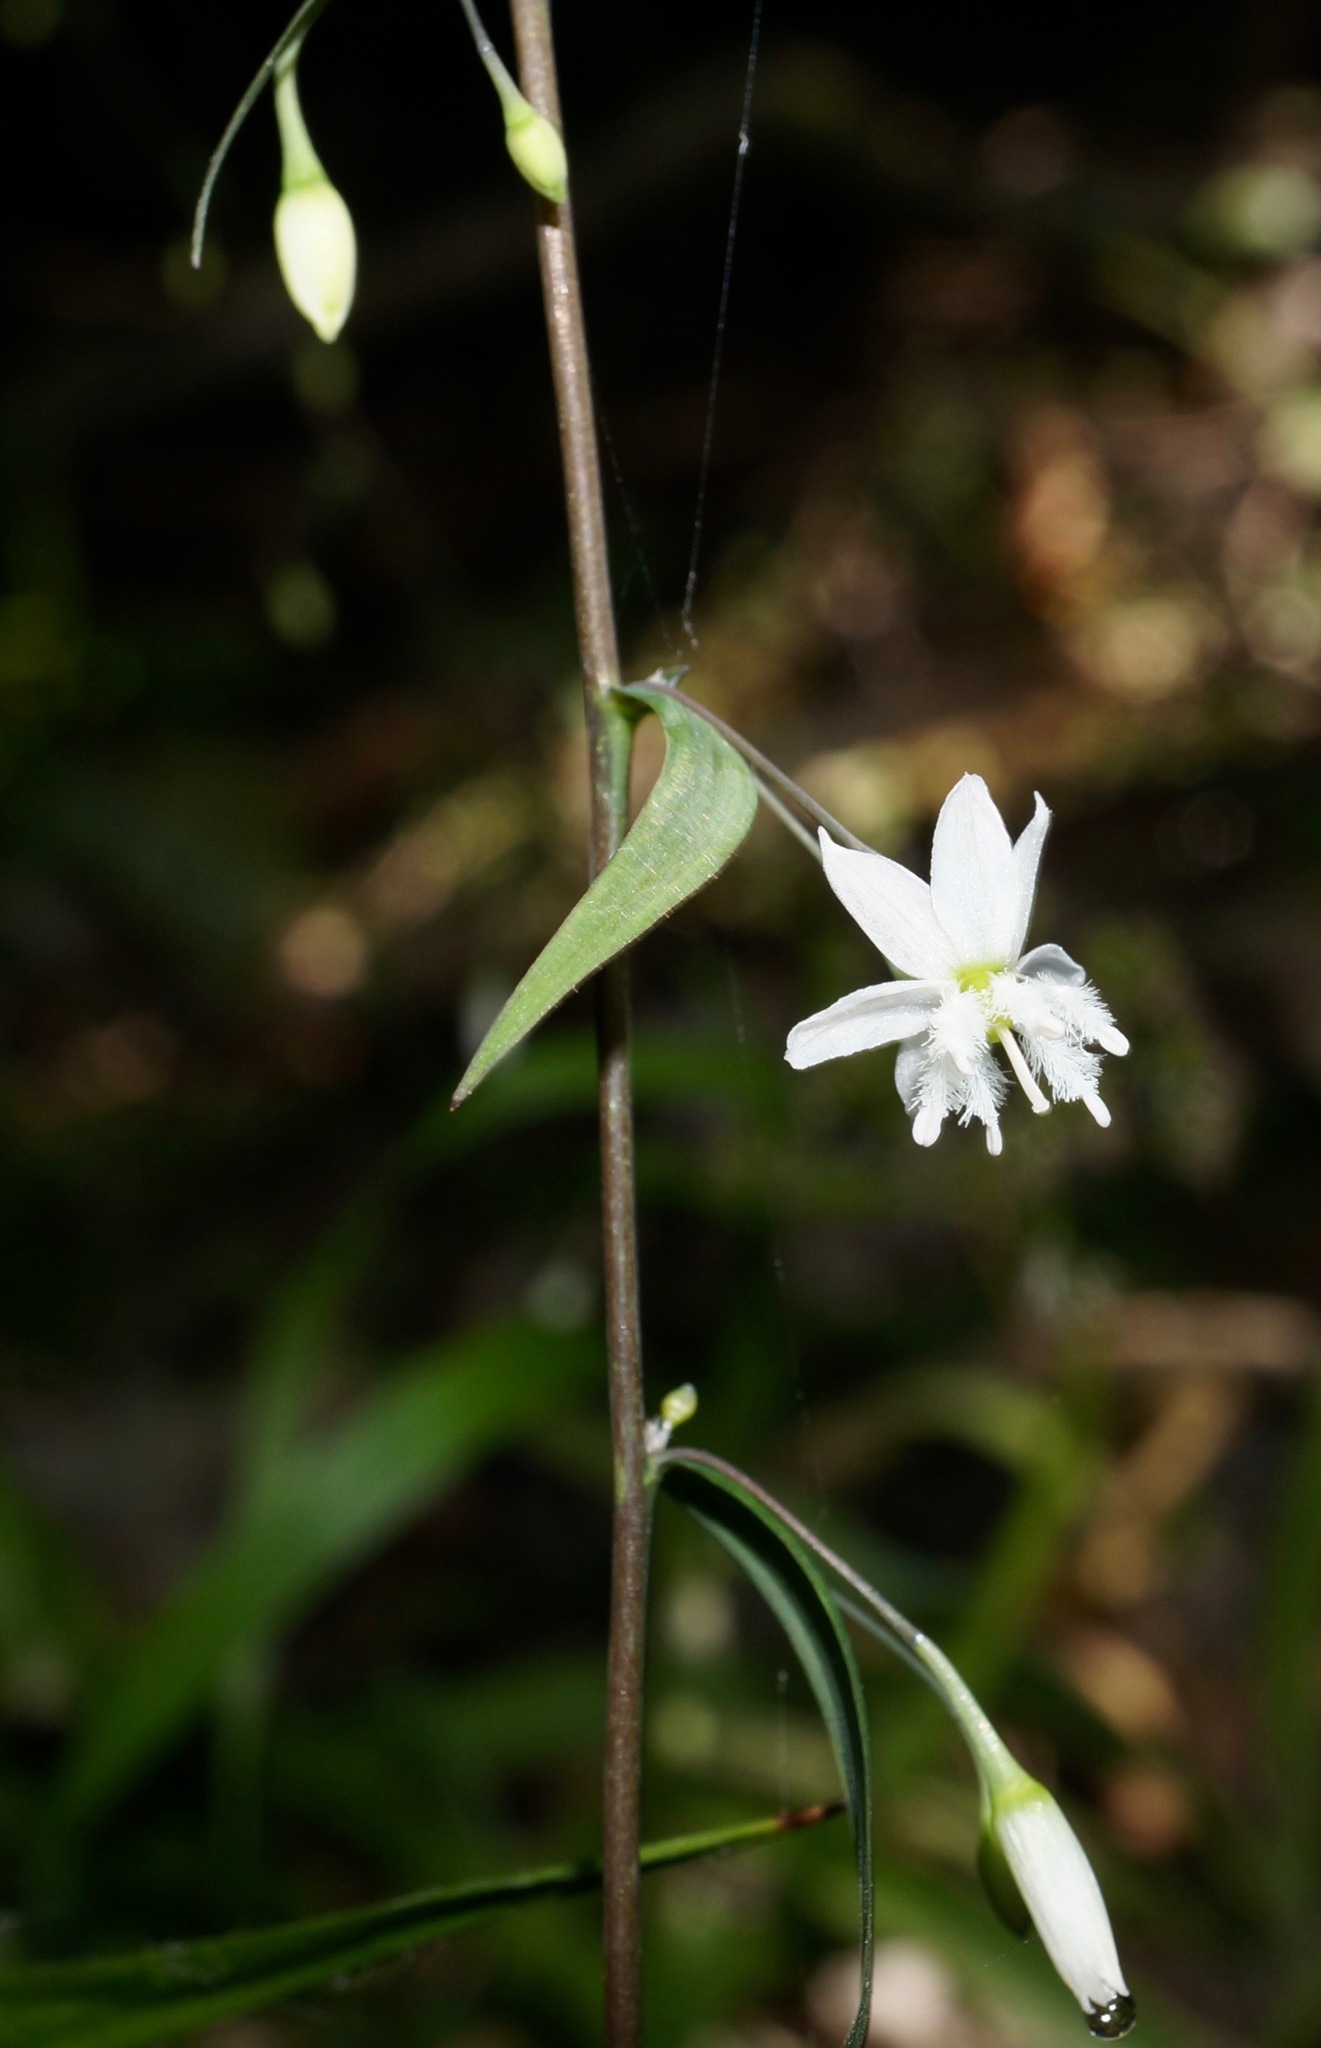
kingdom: Plantae
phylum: Tracheophyta
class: Liliopsida
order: Asparagales
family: Asparagaceae
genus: Arthropodium
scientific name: Arthropodium candidum
